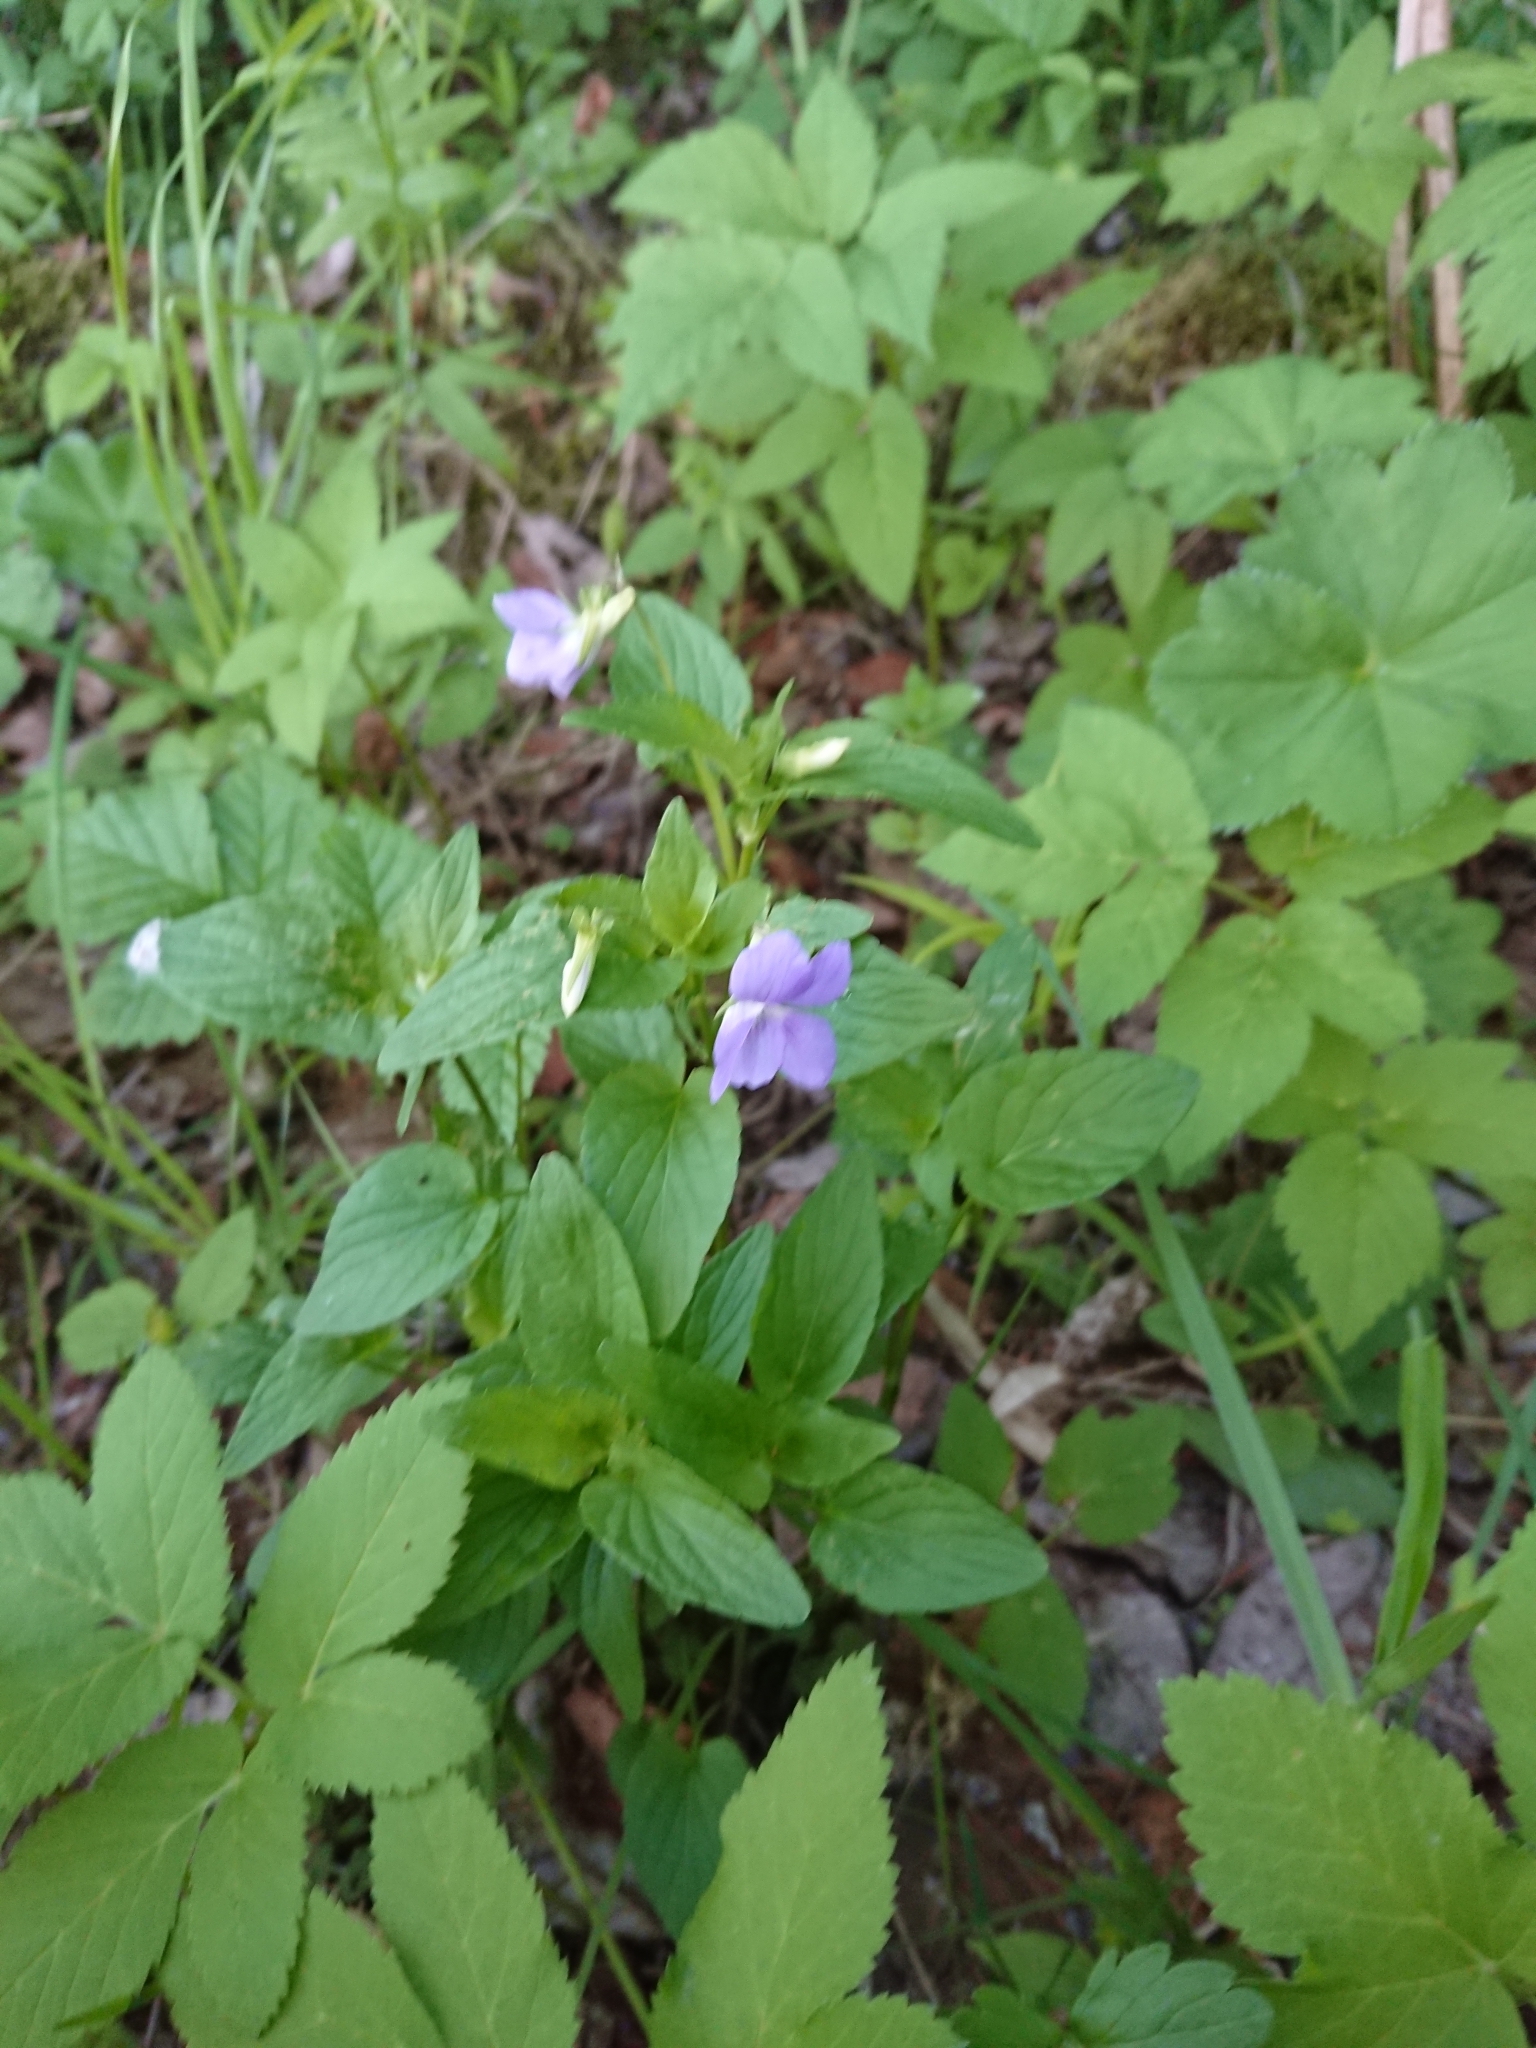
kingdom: Plantae
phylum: Tracheophyta
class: Magnoliopsida
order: Malpighiales
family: Violaceae
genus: Viola
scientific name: Viola canina
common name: Heath dog-violet
